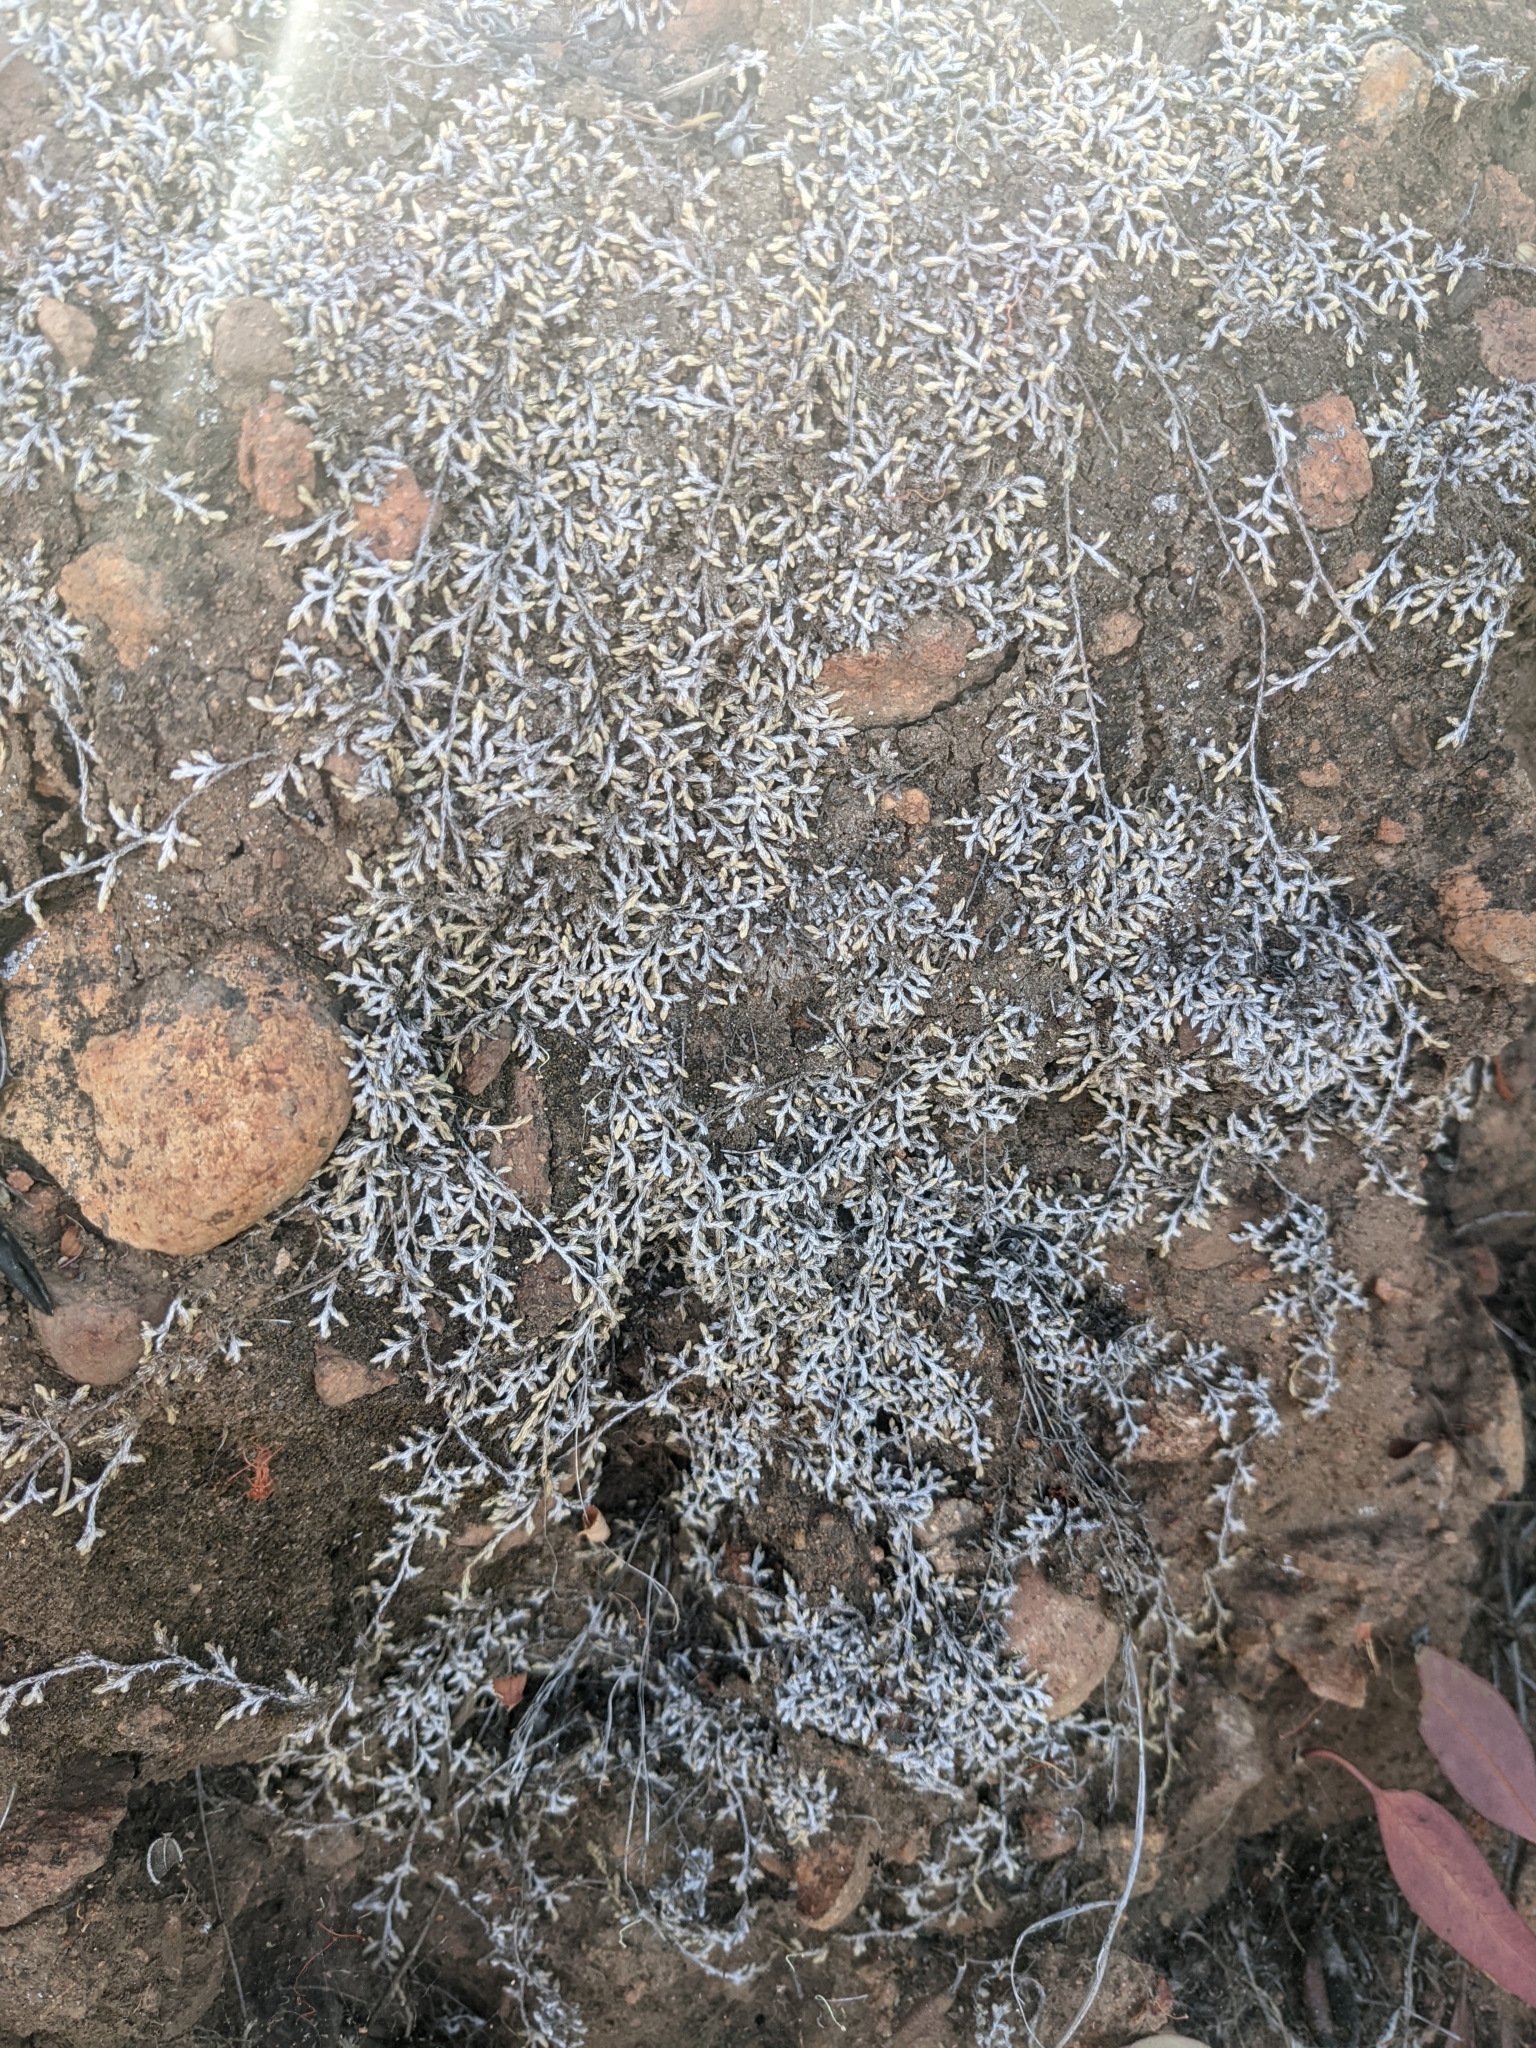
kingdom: Plantae
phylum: Tracheophyta
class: Lycopodiopsida
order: Selaginellales
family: Selaginellaceae
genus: Selaginella
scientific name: Selaginella cinerascens
